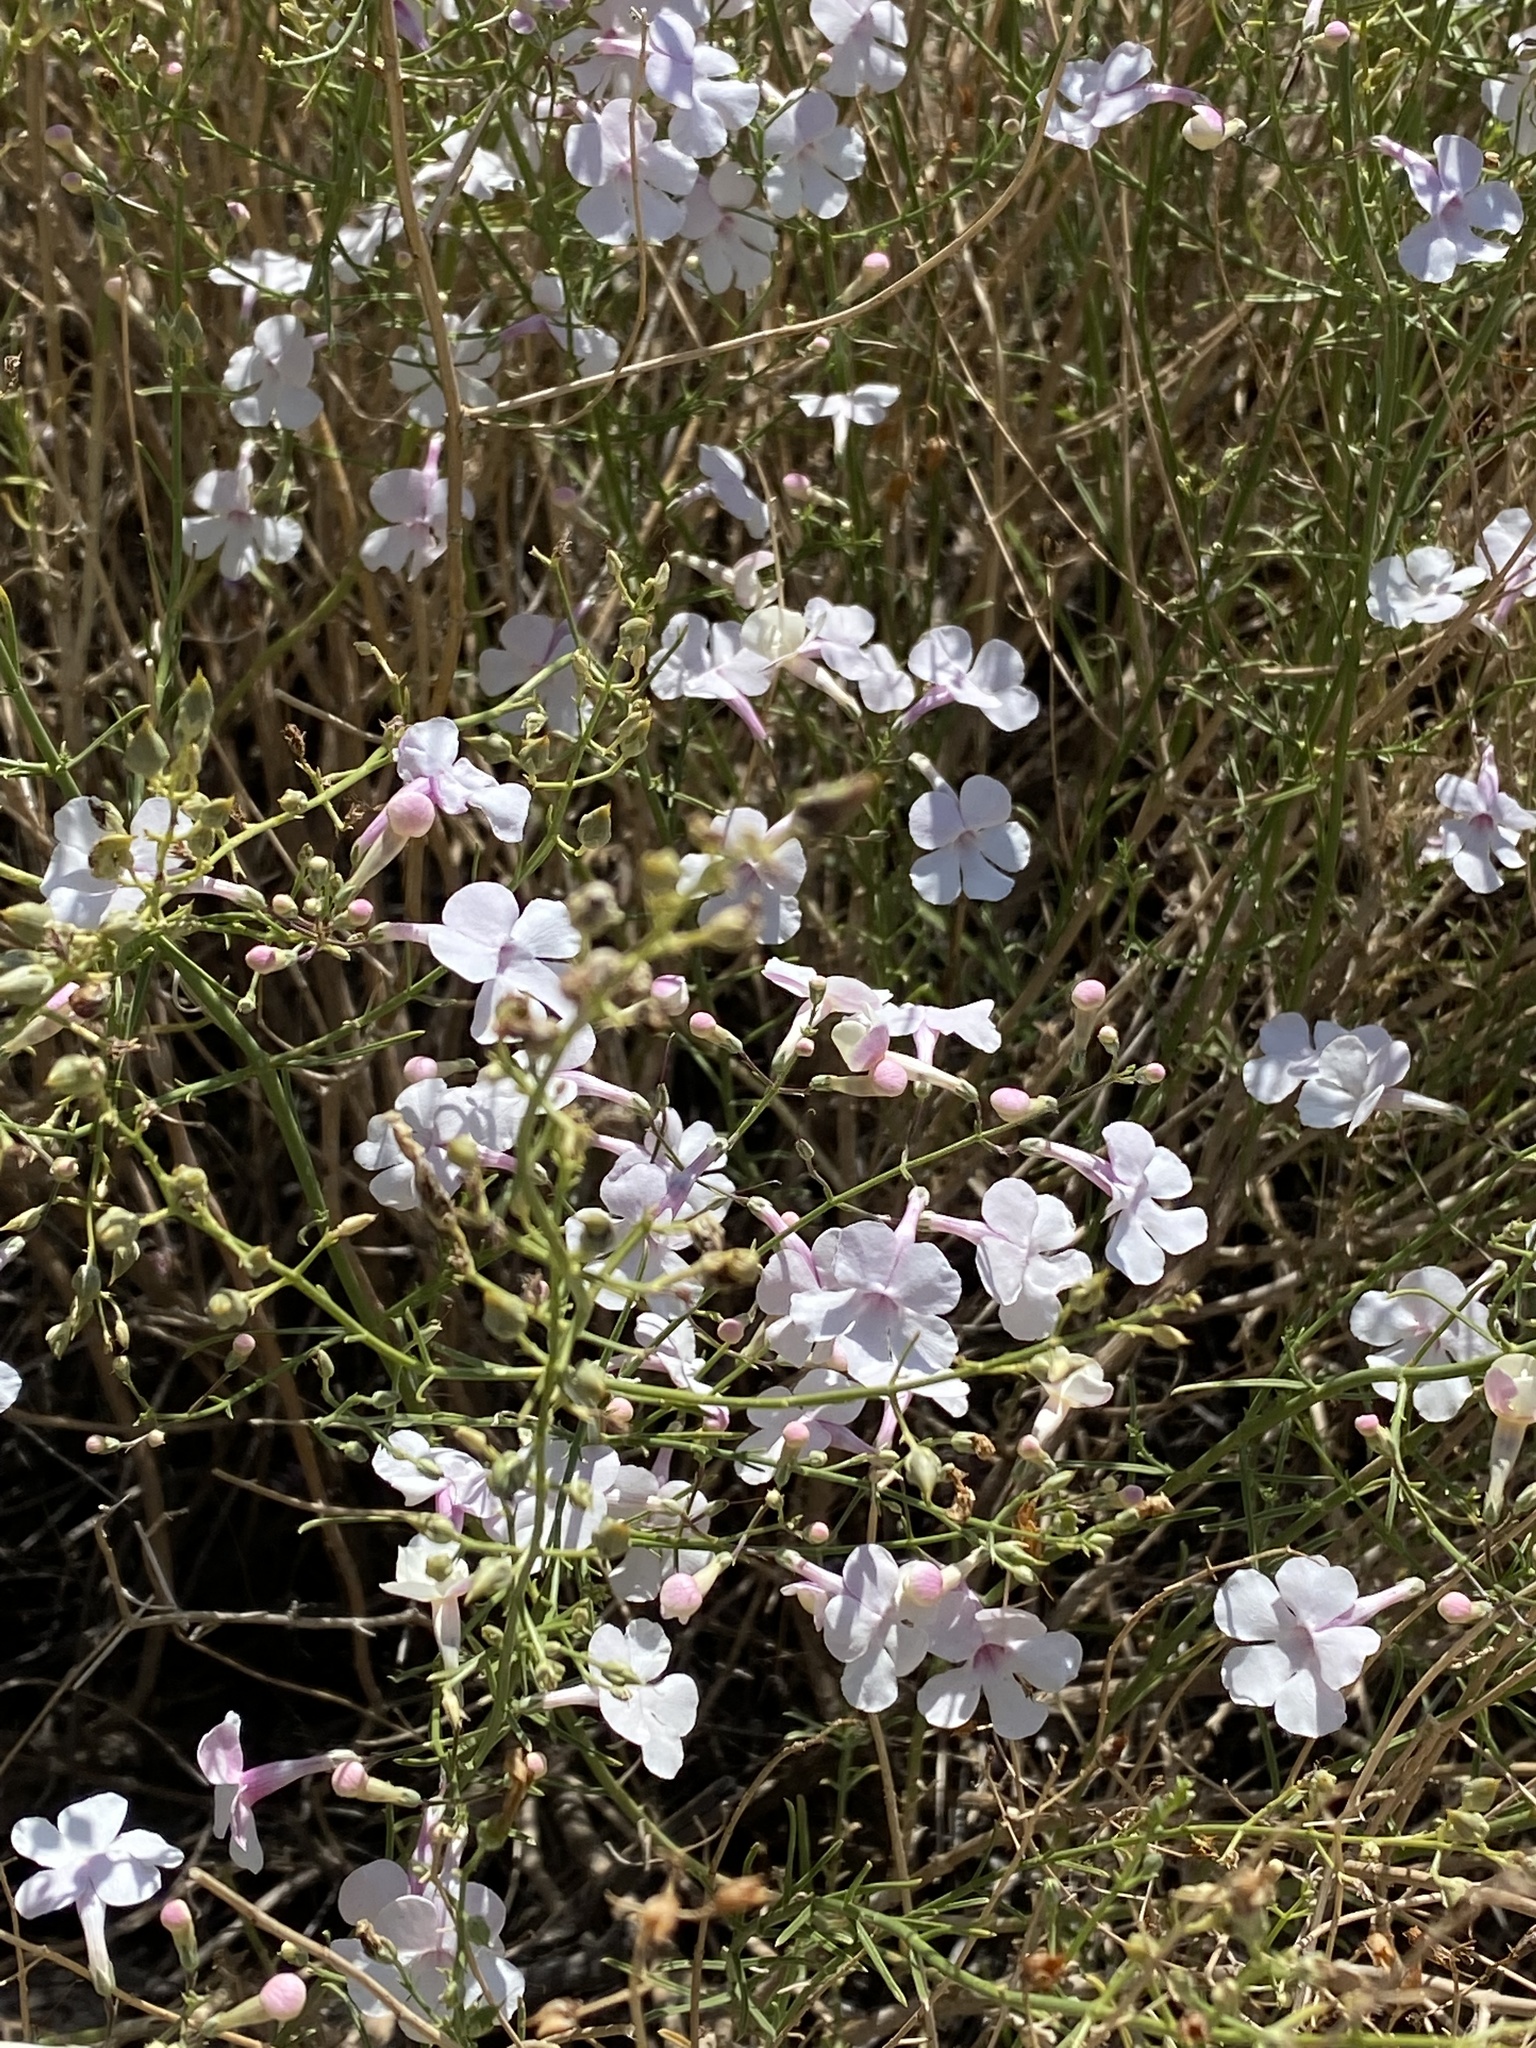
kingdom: Plantae
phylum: Tracheophyta
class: Magnoliopsida
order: Lamiales
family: Plantaginaceae
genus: Penstemon
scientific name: Penstemon ambiguus
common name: Bush penstemon
